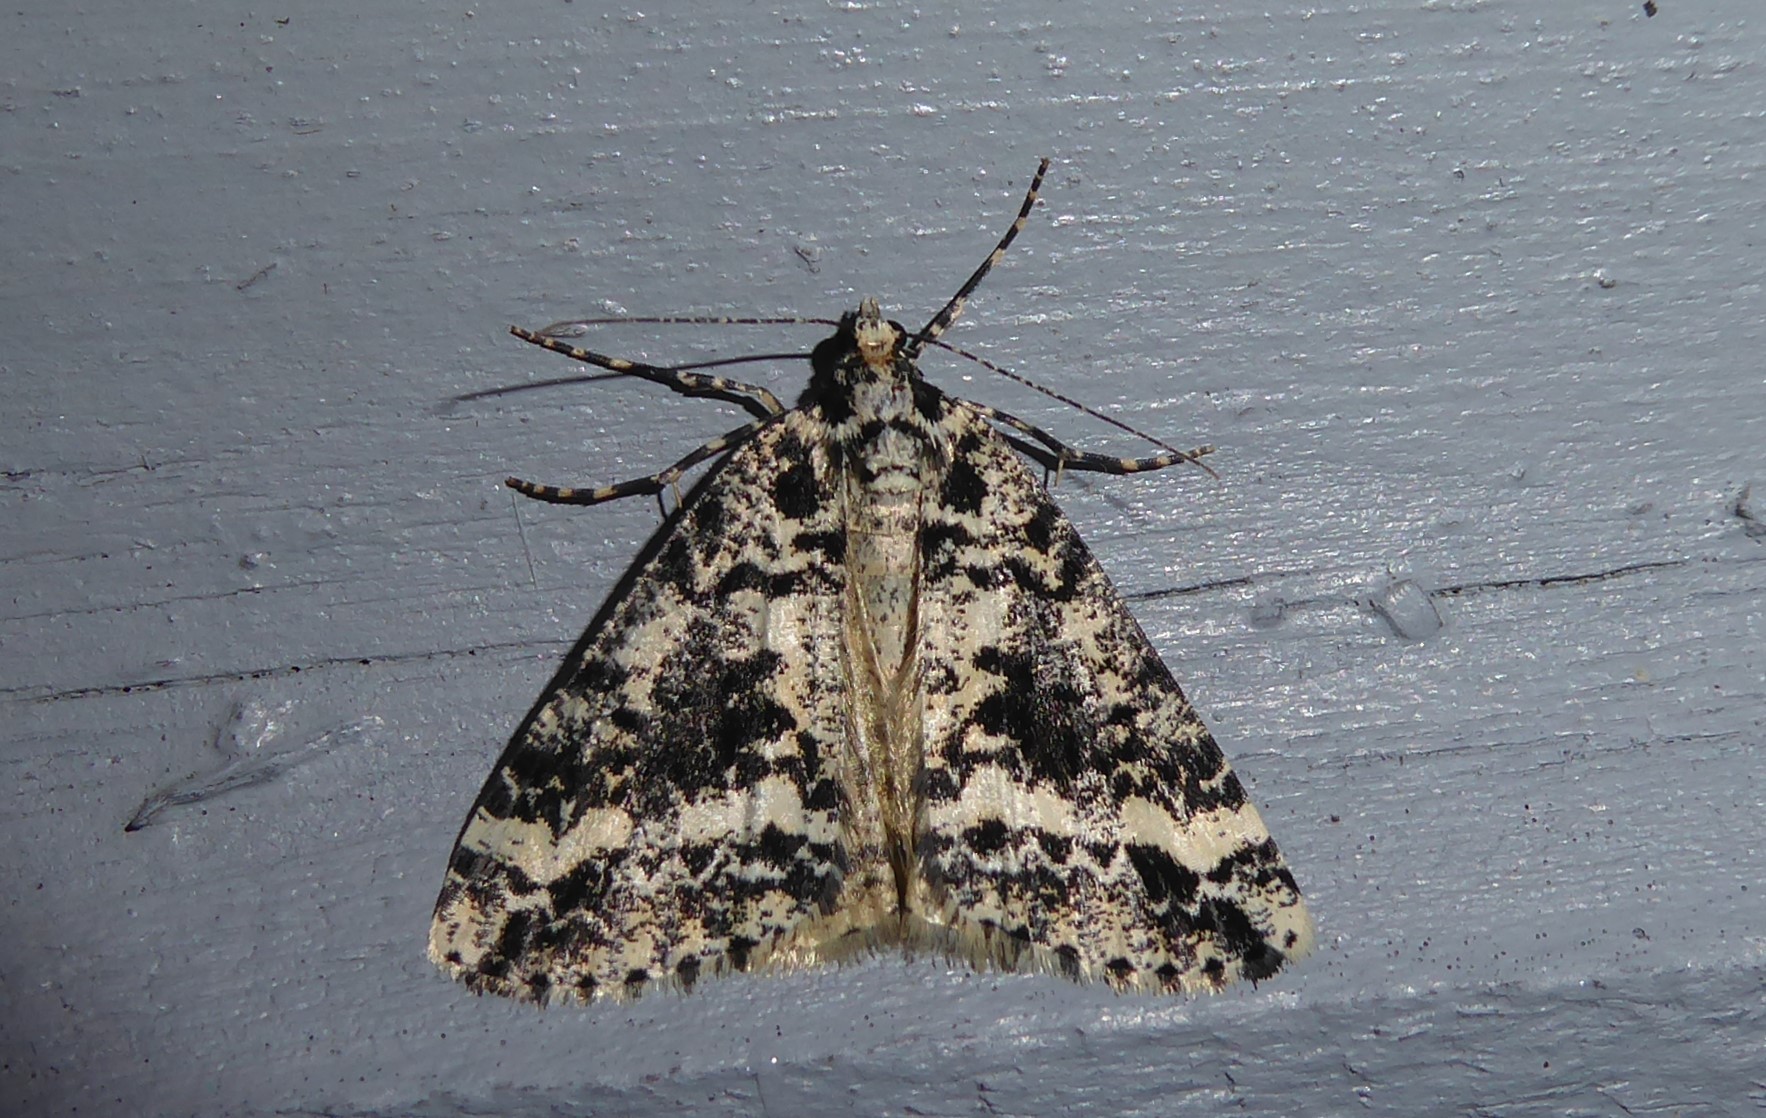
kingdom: Animalia
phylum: Arthropoda
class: Insecta
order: Lepidoptera
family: Geometridae
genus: Pseudocoremia
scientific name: Pseudocoremia leucelaea
